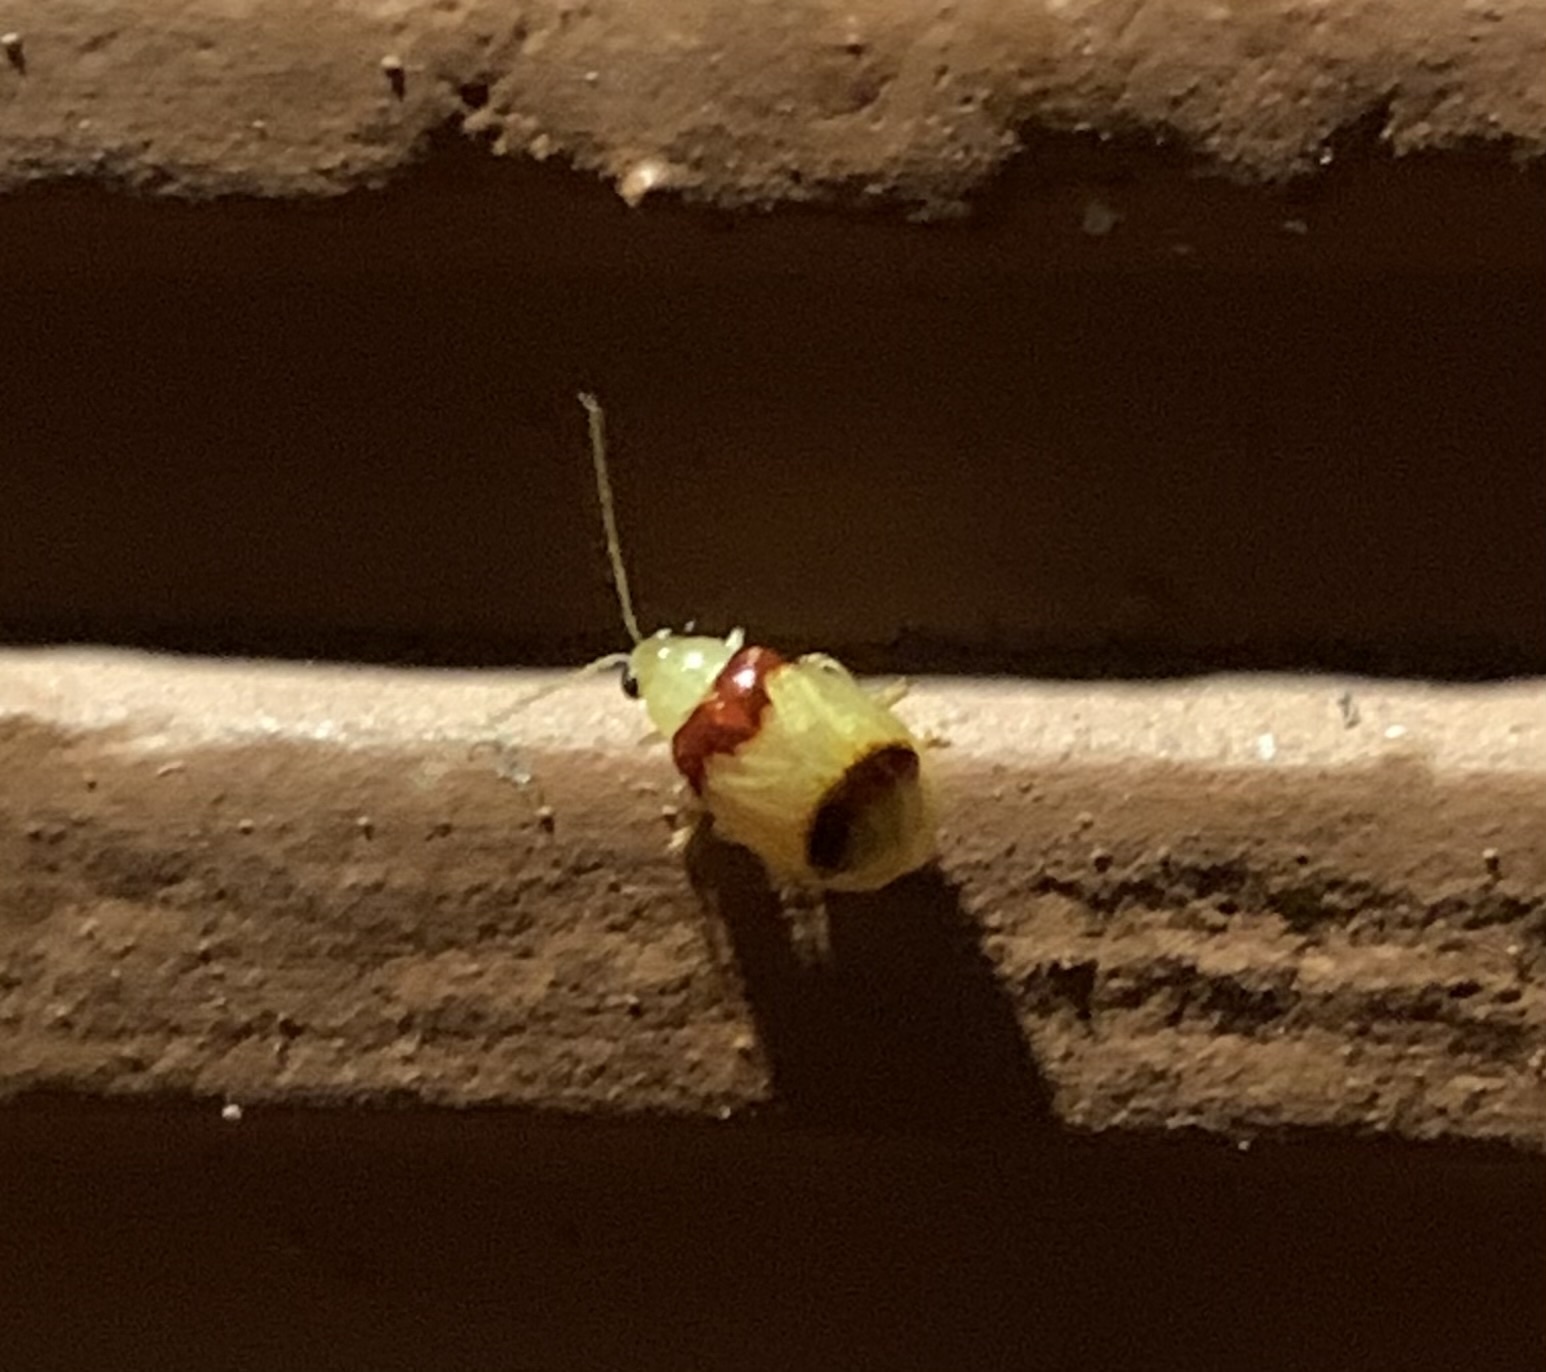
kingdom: Animalia
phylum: Arthropoda
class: Insecta
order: Coleoptera
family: Chrysomelidae
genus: Monolepta
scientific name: Monolepta
